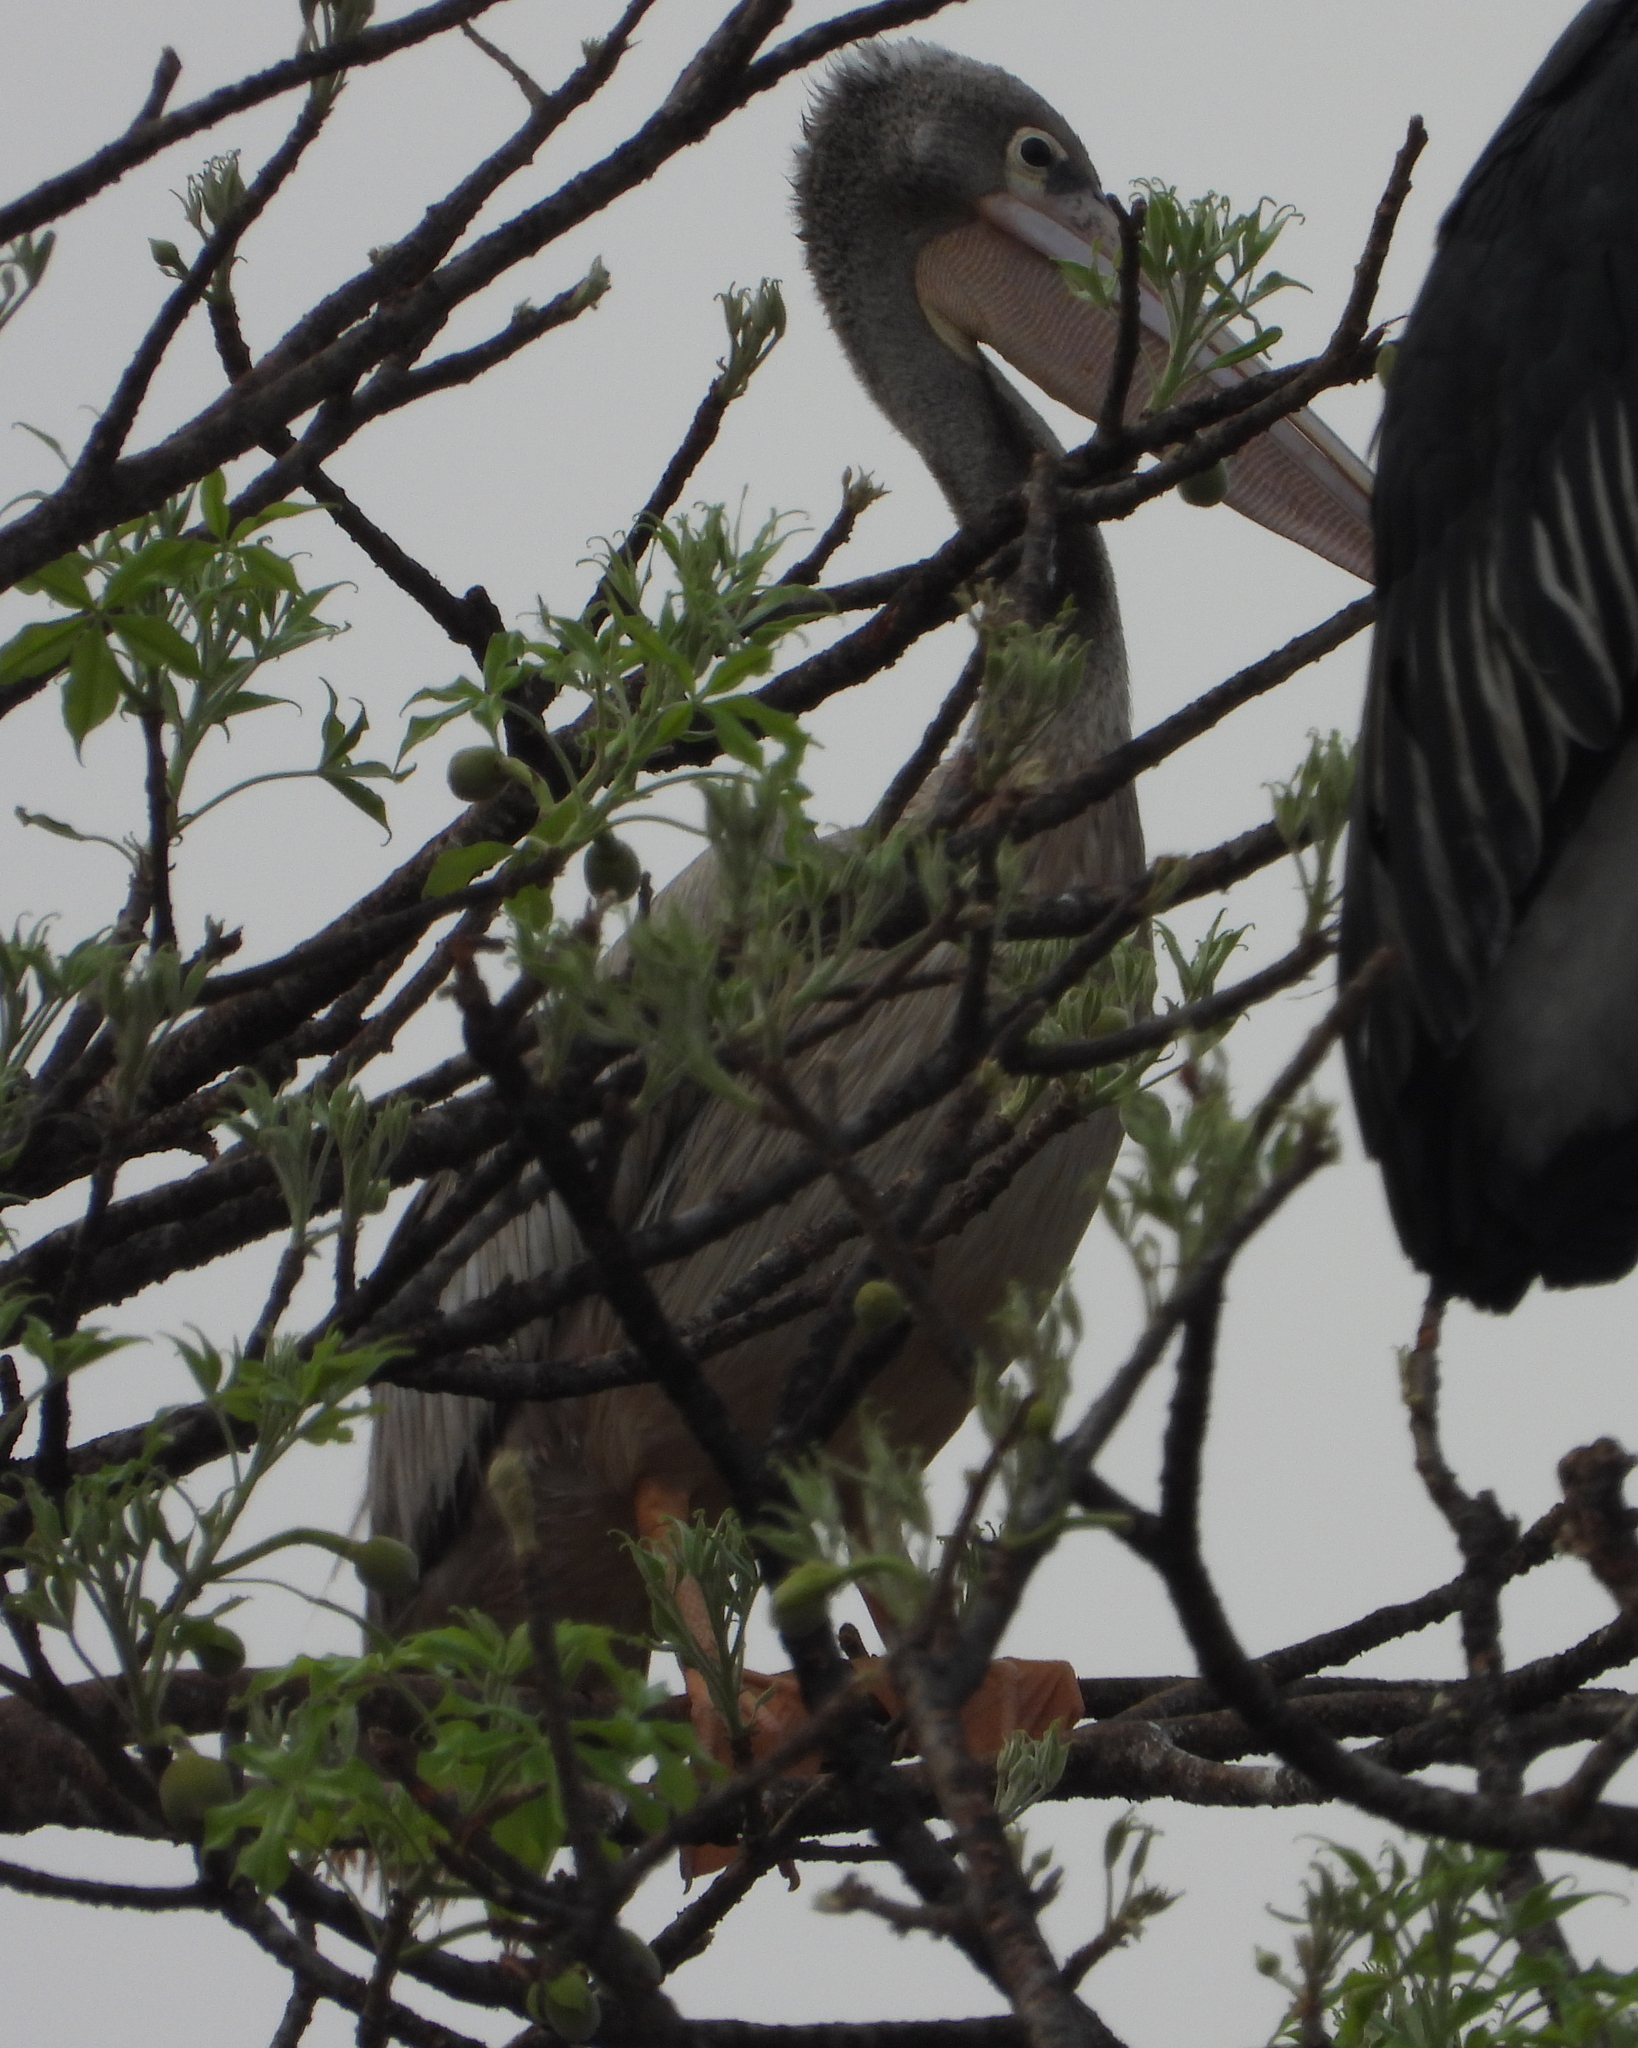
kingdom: Animalia
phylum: Chordata
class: Aves
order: Pelecaniformes
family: Pelecanidae
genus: Pelecanus
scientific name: Pelecanus rufescens
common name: Pink-backed pelican
